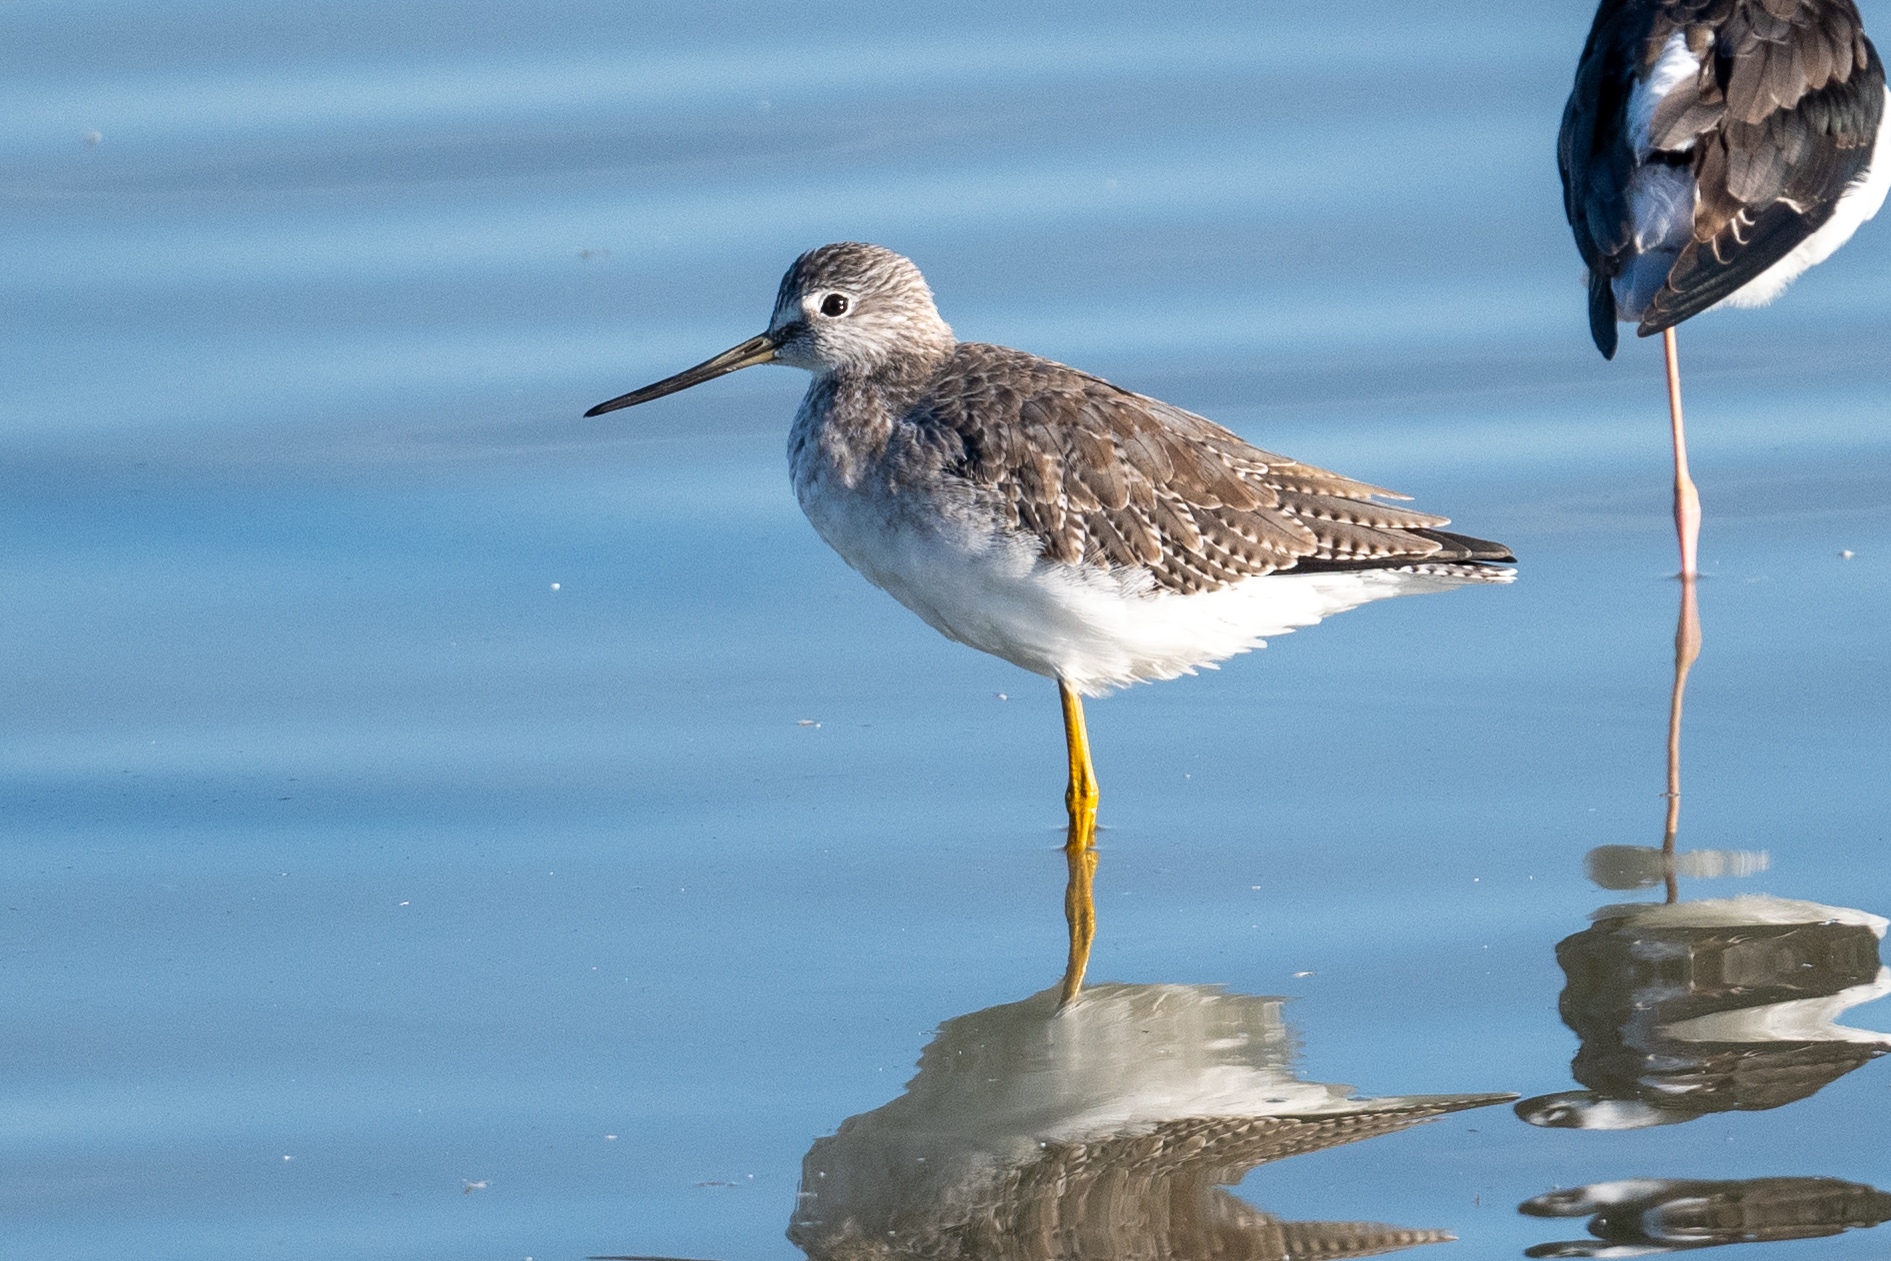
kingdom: Animalia
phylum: Chordata
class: Aves
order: Charadriiformes
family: Scolopacidae
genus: Tringa
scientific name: Tringa melanoleuca
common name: Greater yellowlegs
